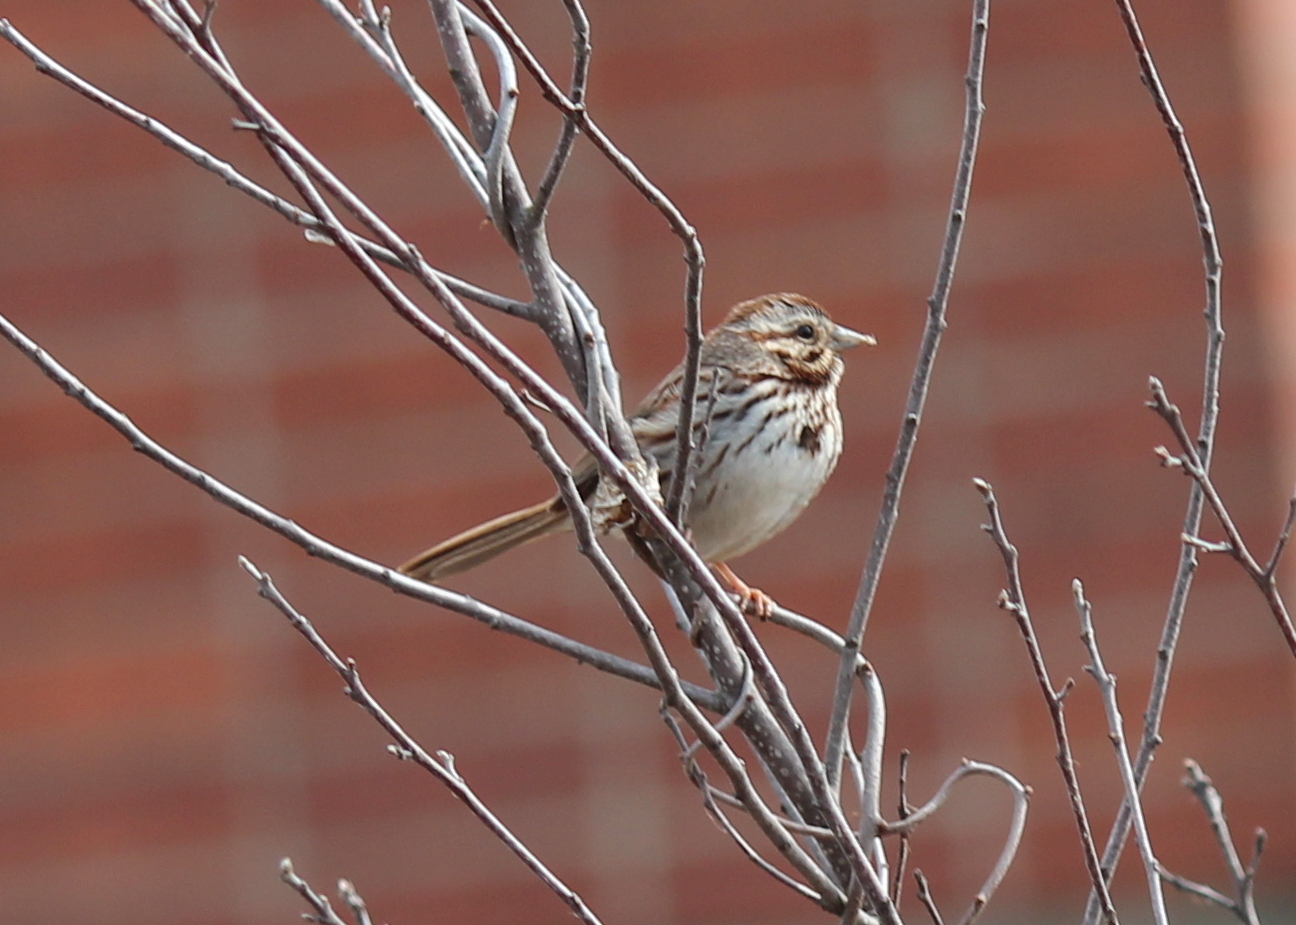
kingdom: Animalia
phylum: Chordata
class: Aves
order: Passeriformes
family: Passerellidae
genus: Melospiza
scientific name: Melospiza melodia
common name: Song sparrow
